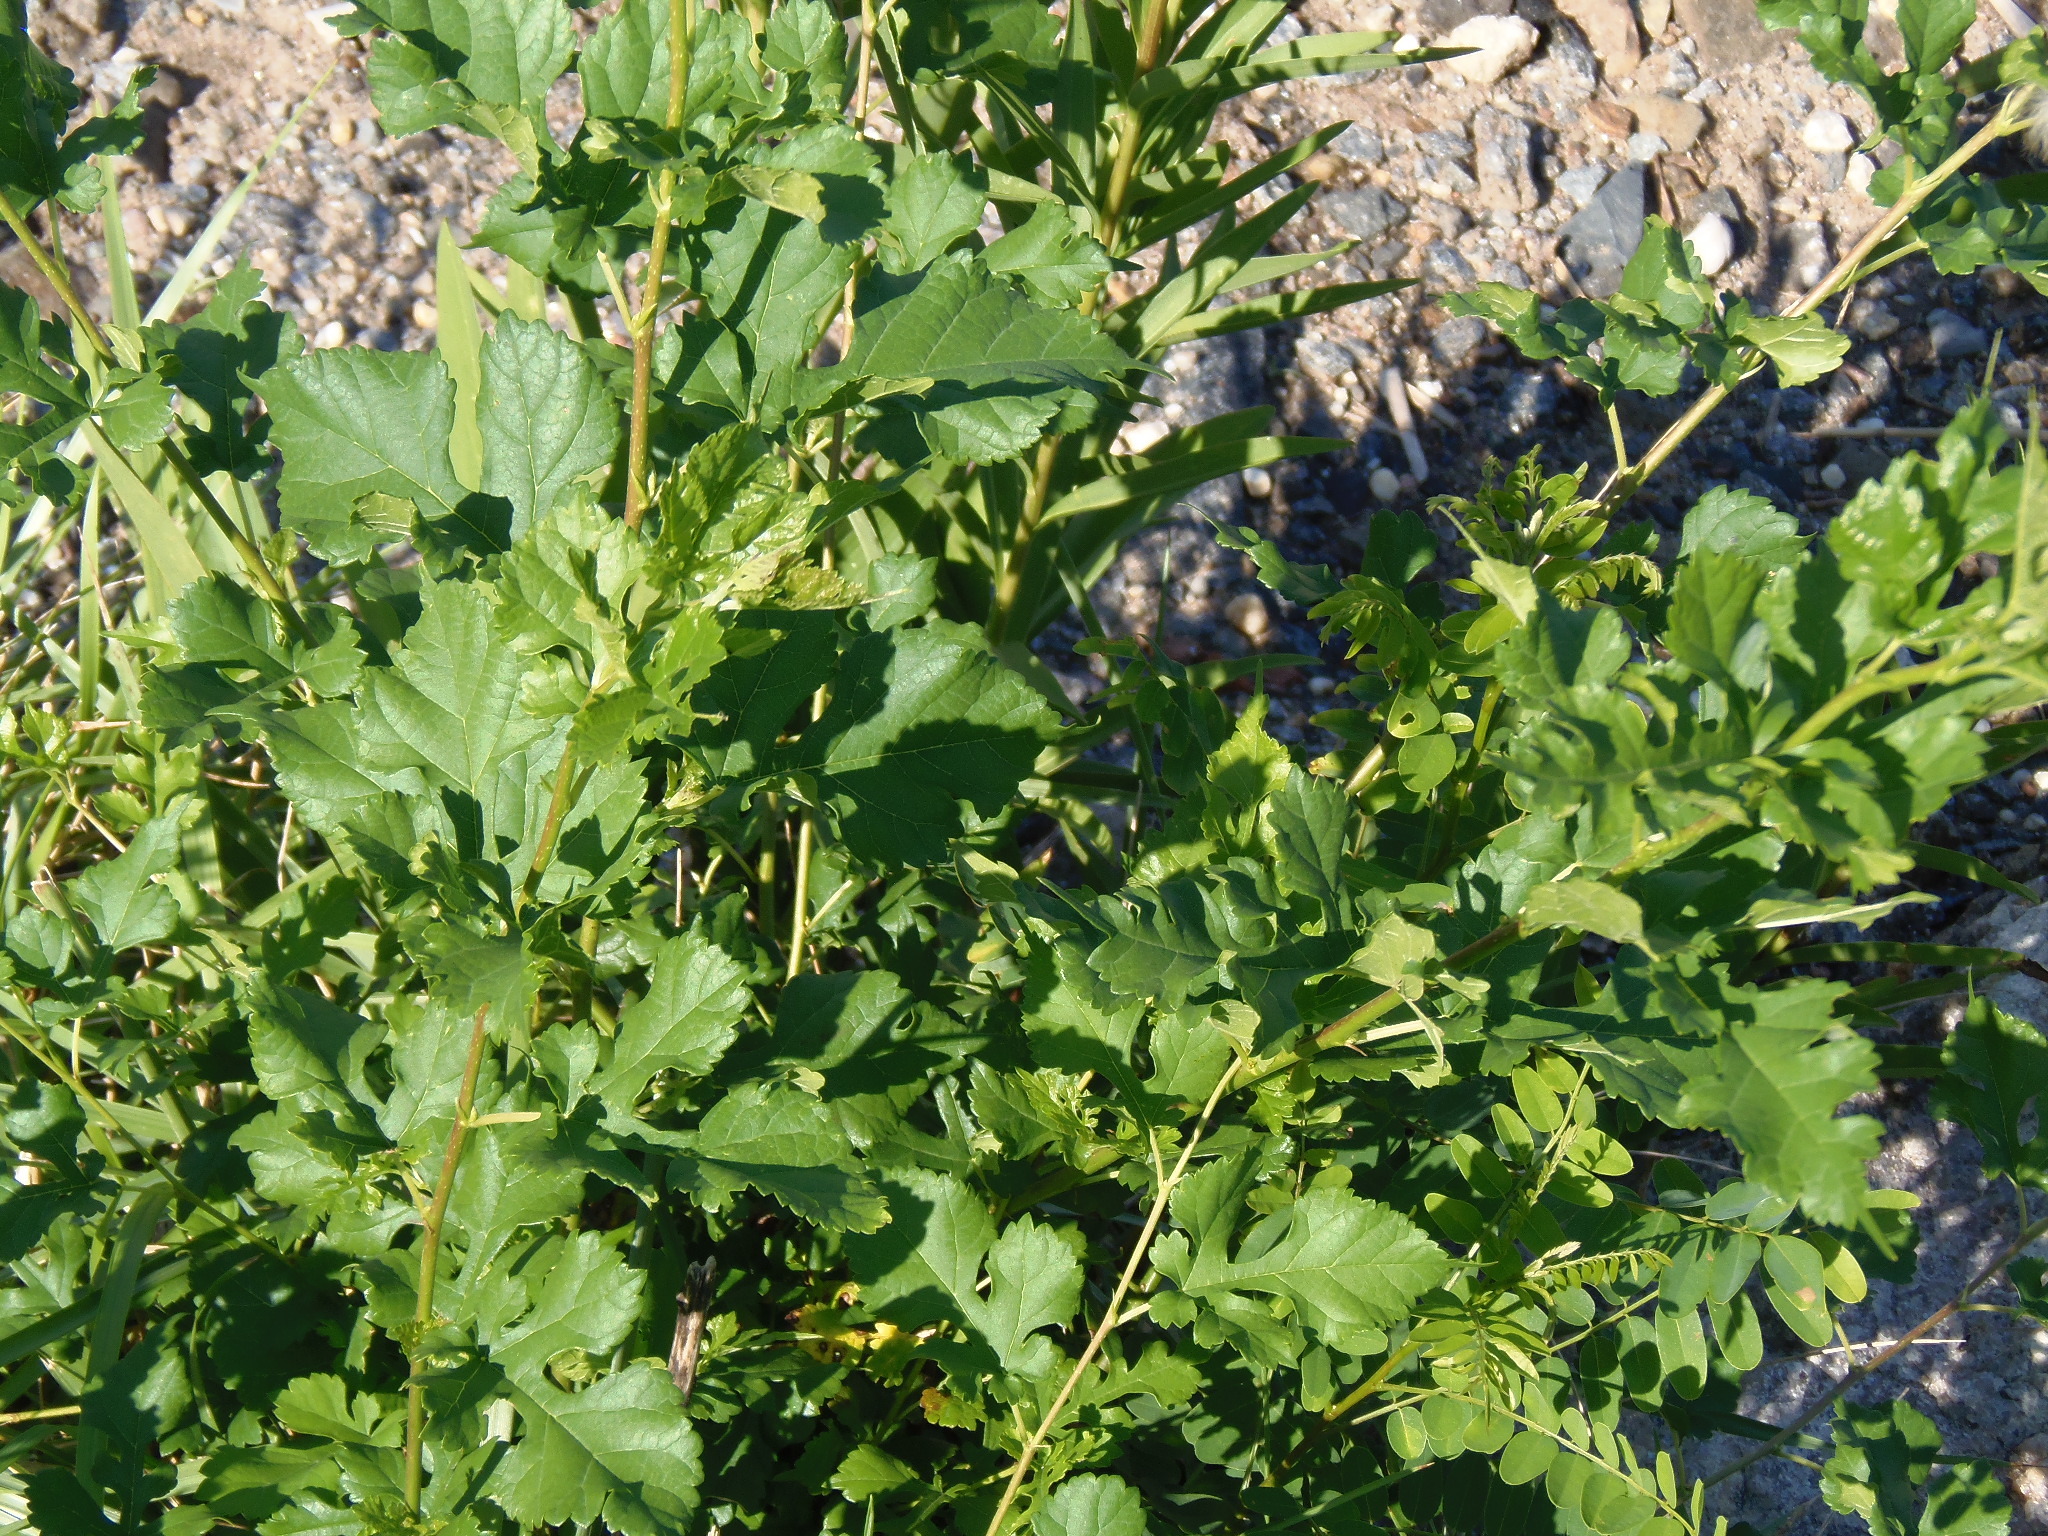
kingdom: Plantae
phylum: Tracheophyta
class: Magnoliopsida
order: Rosales
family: Moraceae
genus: Morus
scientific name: Morus alba
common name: White mulberry
